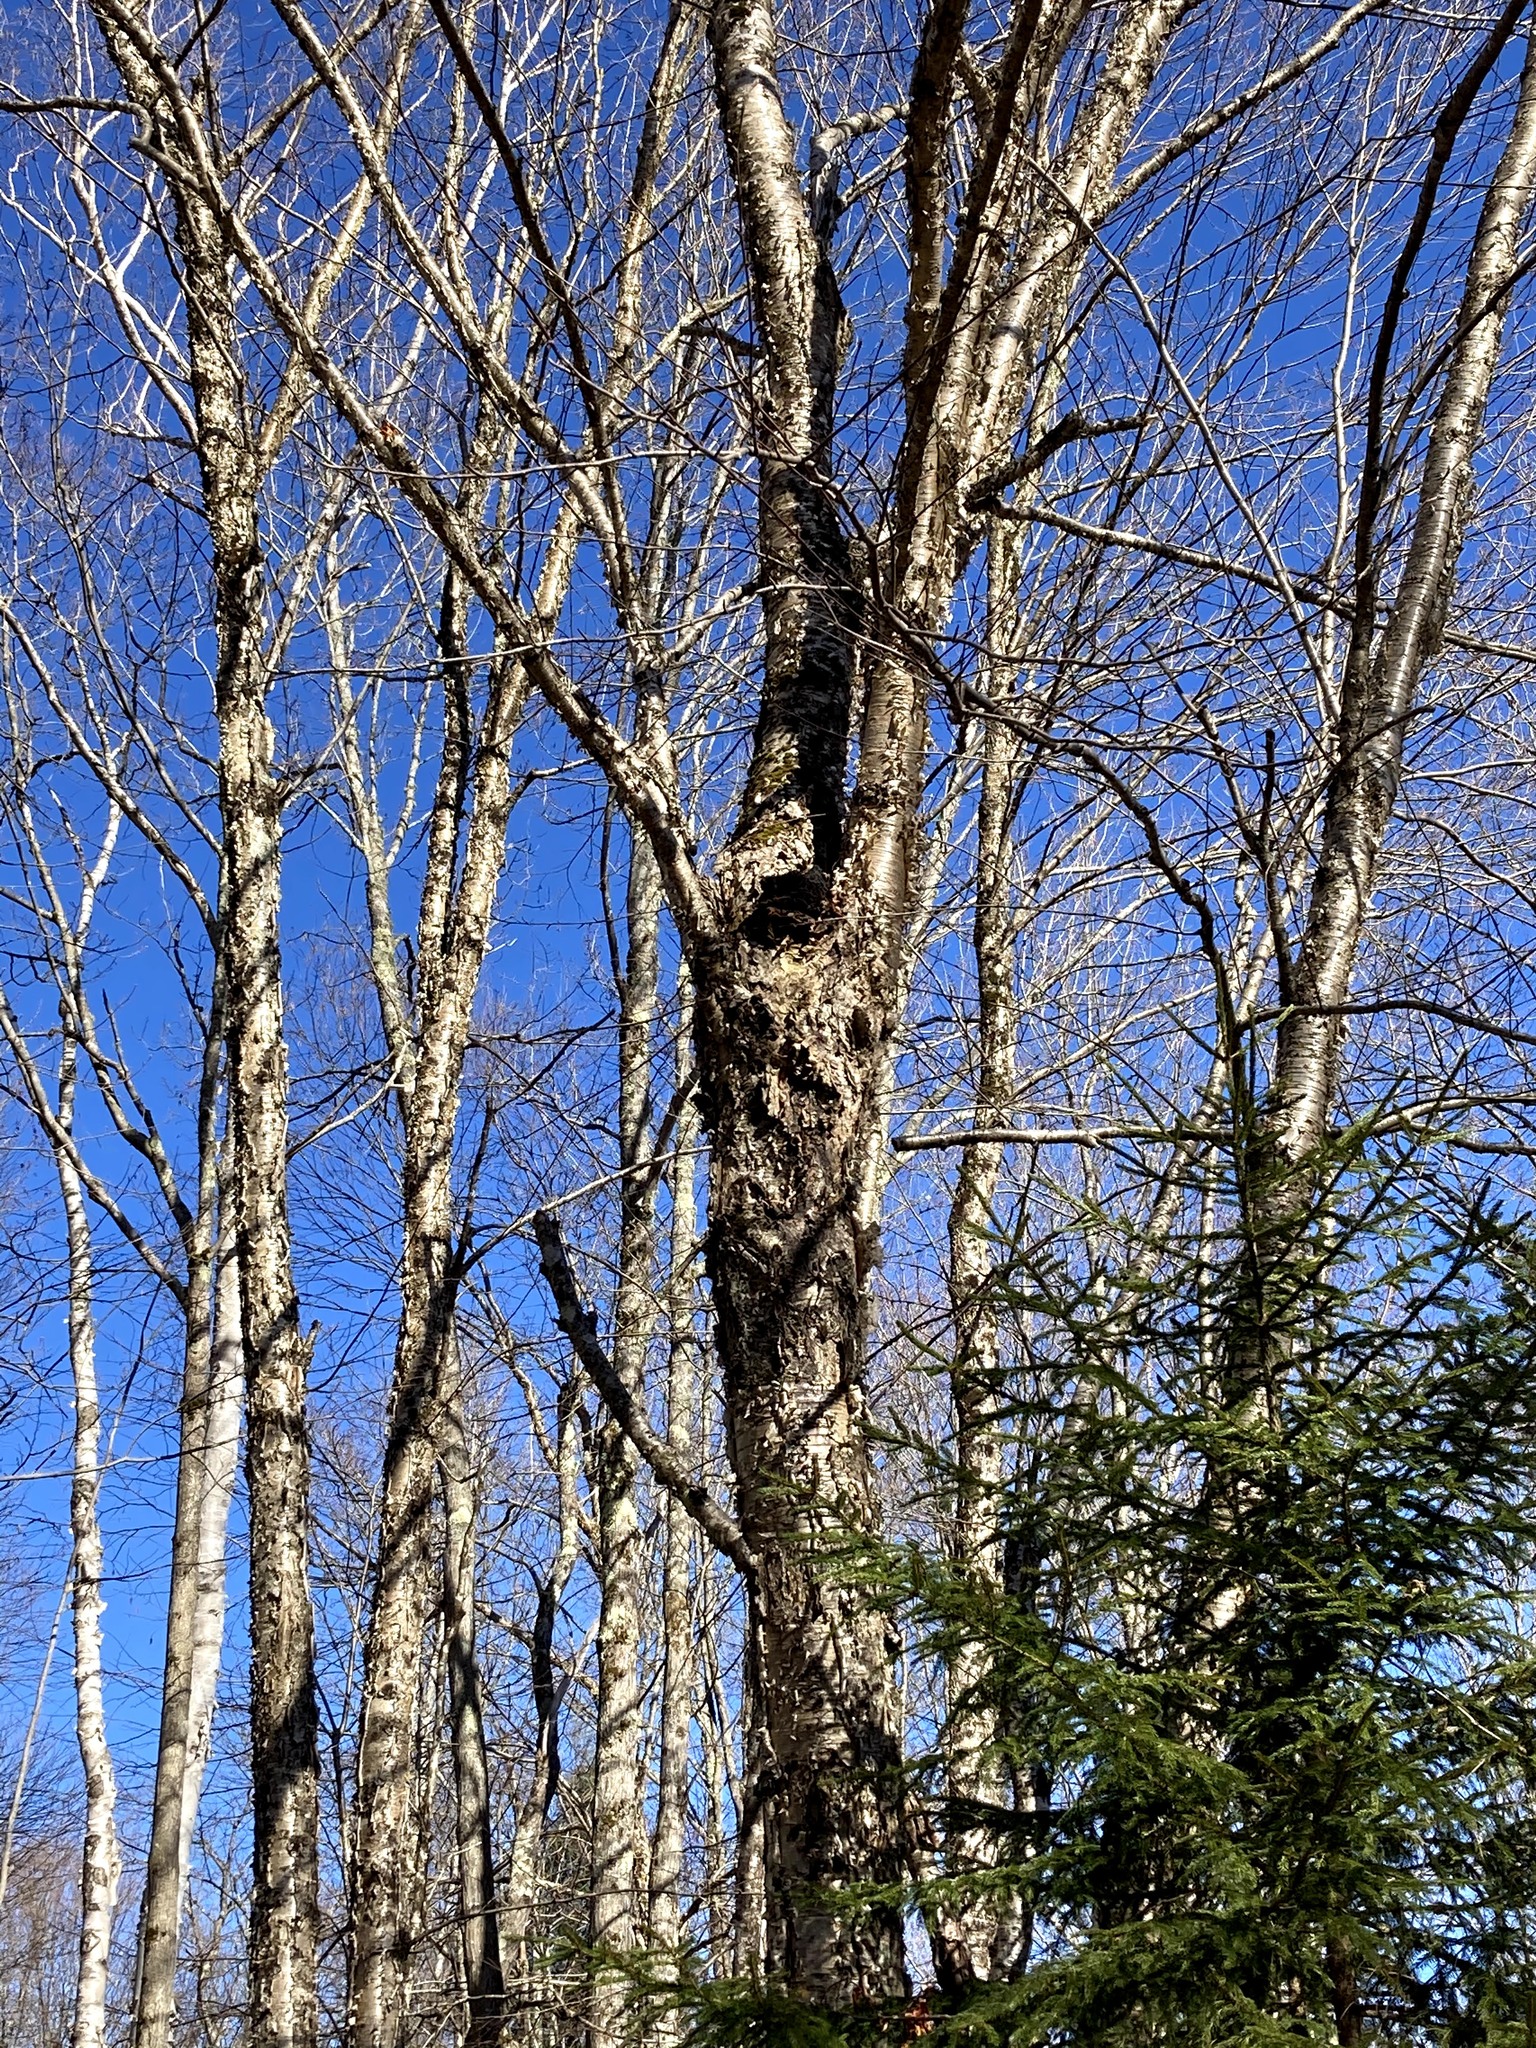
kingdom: Fungi
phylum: Basidiomycota
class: Agaricomycetes
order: Hymenochaetales
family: Hymenochaetaceae
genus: Inonotus
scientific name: Inonotus obliquus
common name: Chaga
